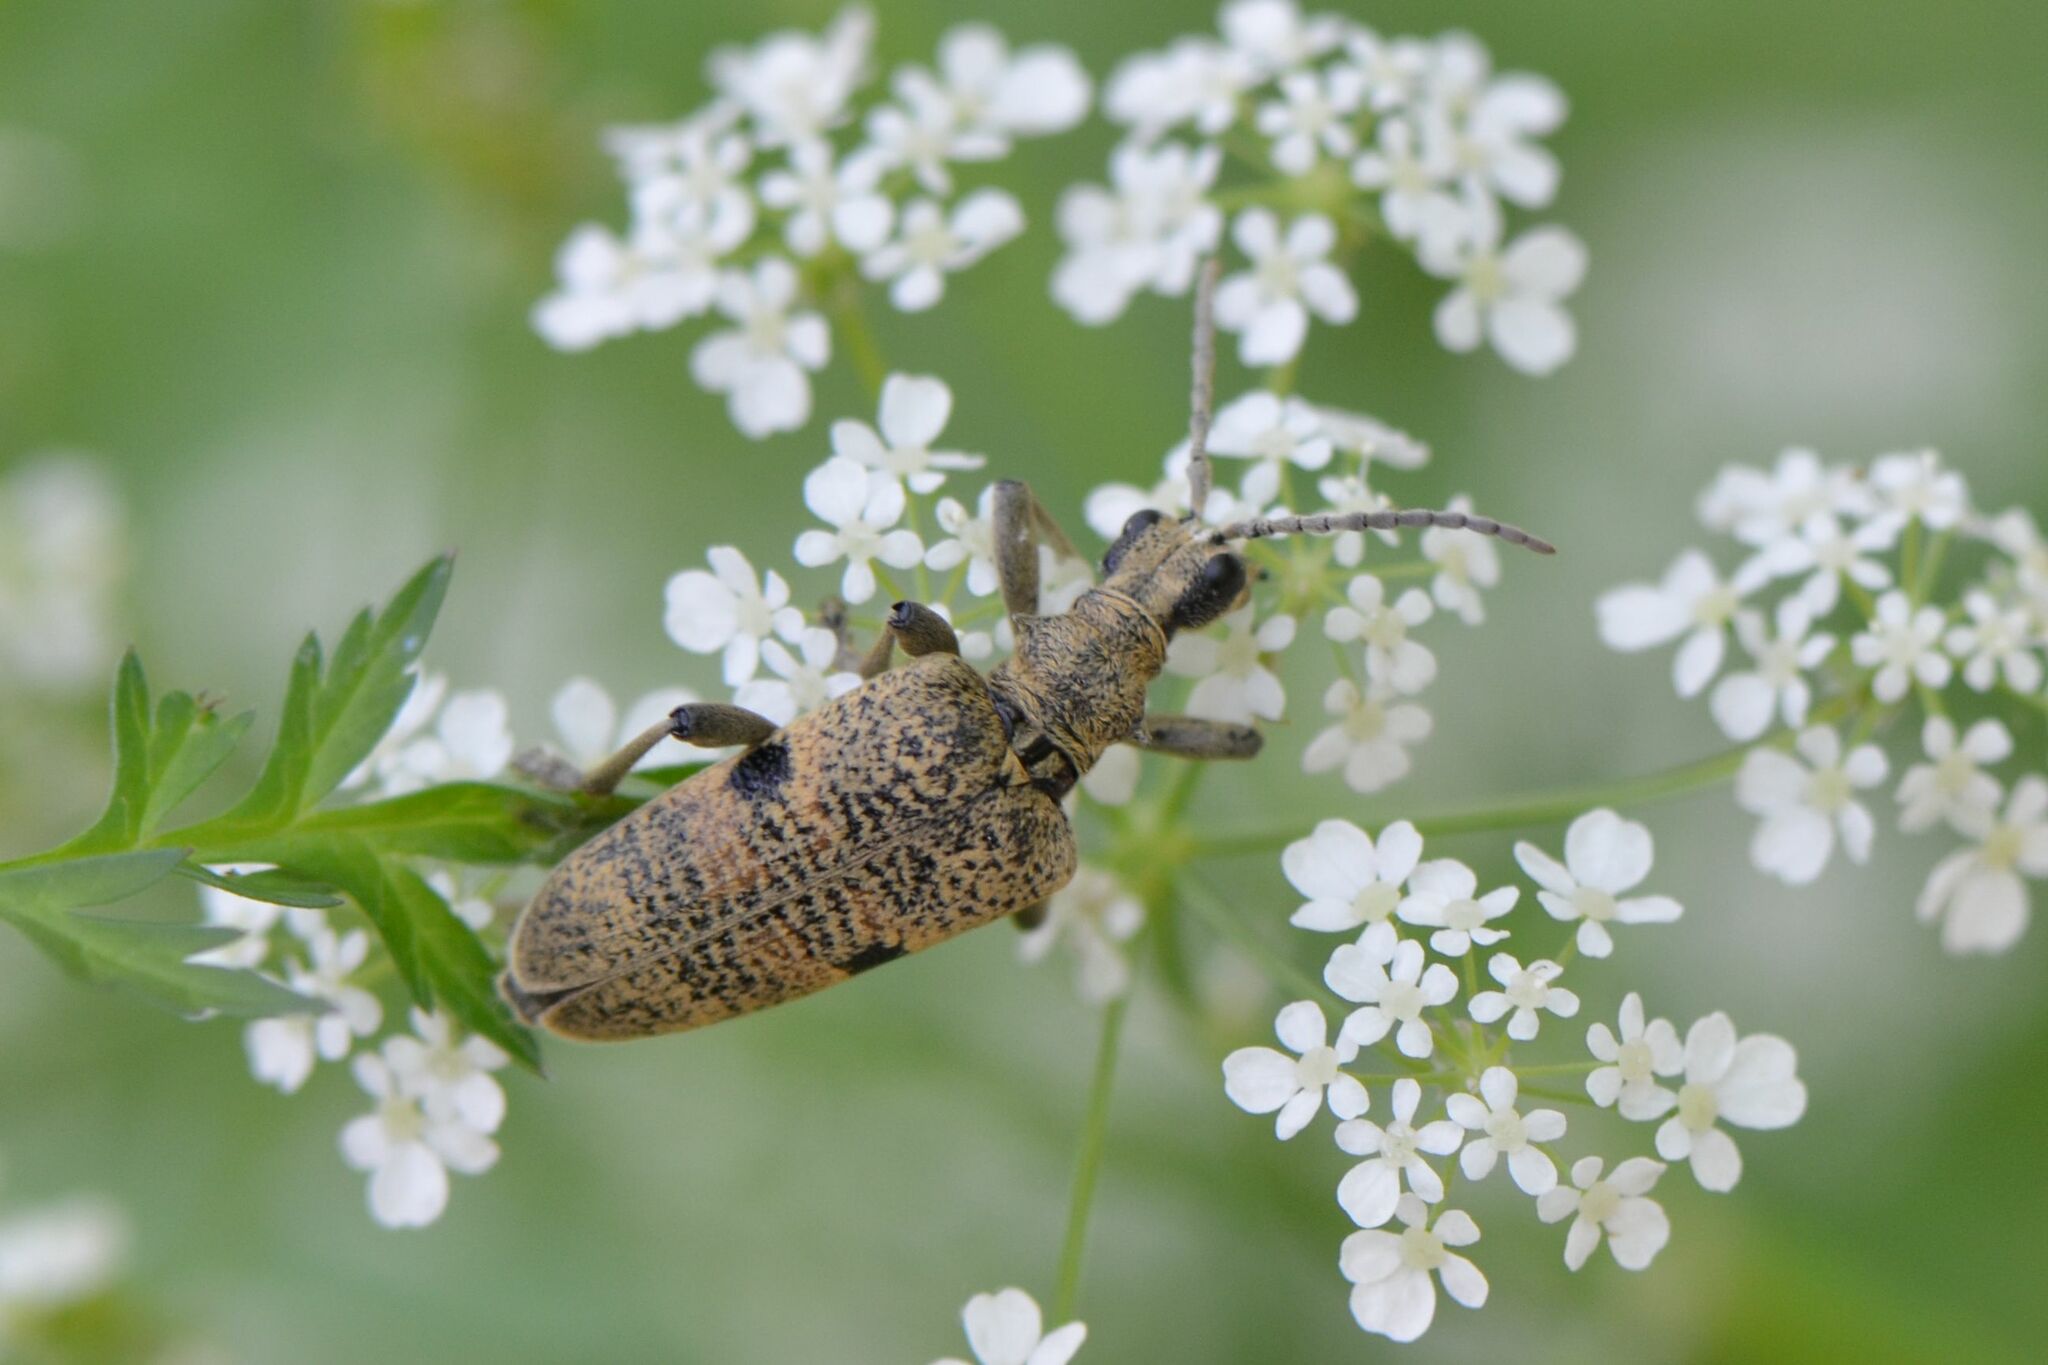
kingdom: Animalia
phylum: Arthropoda
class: Insecta
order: Coleoptera
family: Cerambycidae
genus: Rhagium
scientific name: Rhagium mordax
